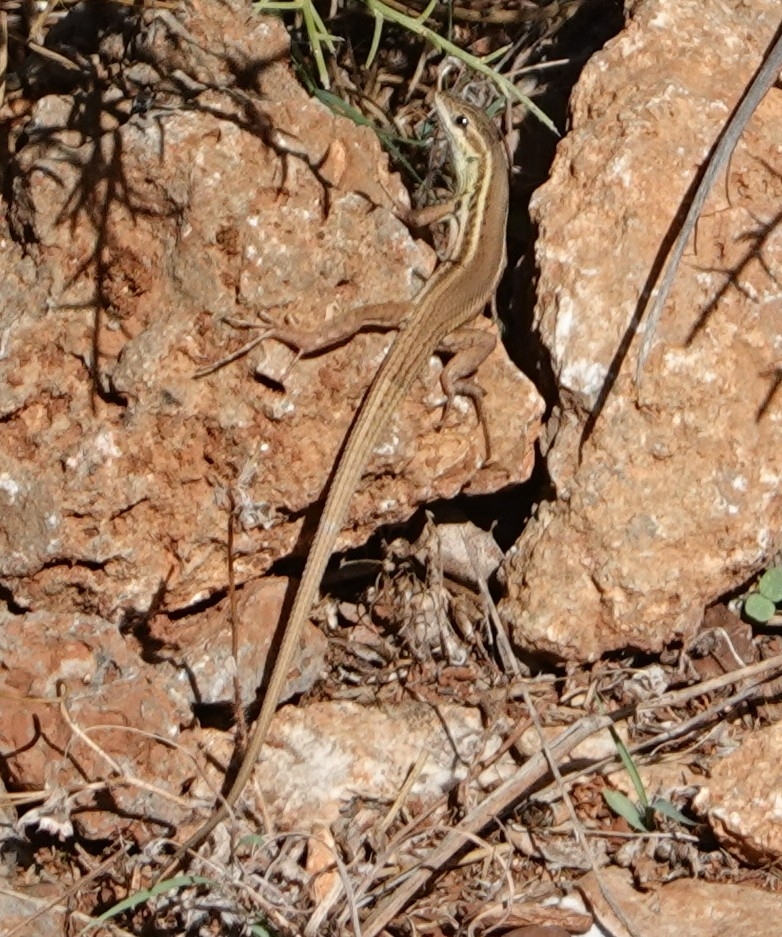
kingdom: Animalia
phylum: Chordata
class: Squamata
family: Lacertidae
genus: Ophisops
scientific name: Ophisops elegans
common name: Snake-eyed lizard
